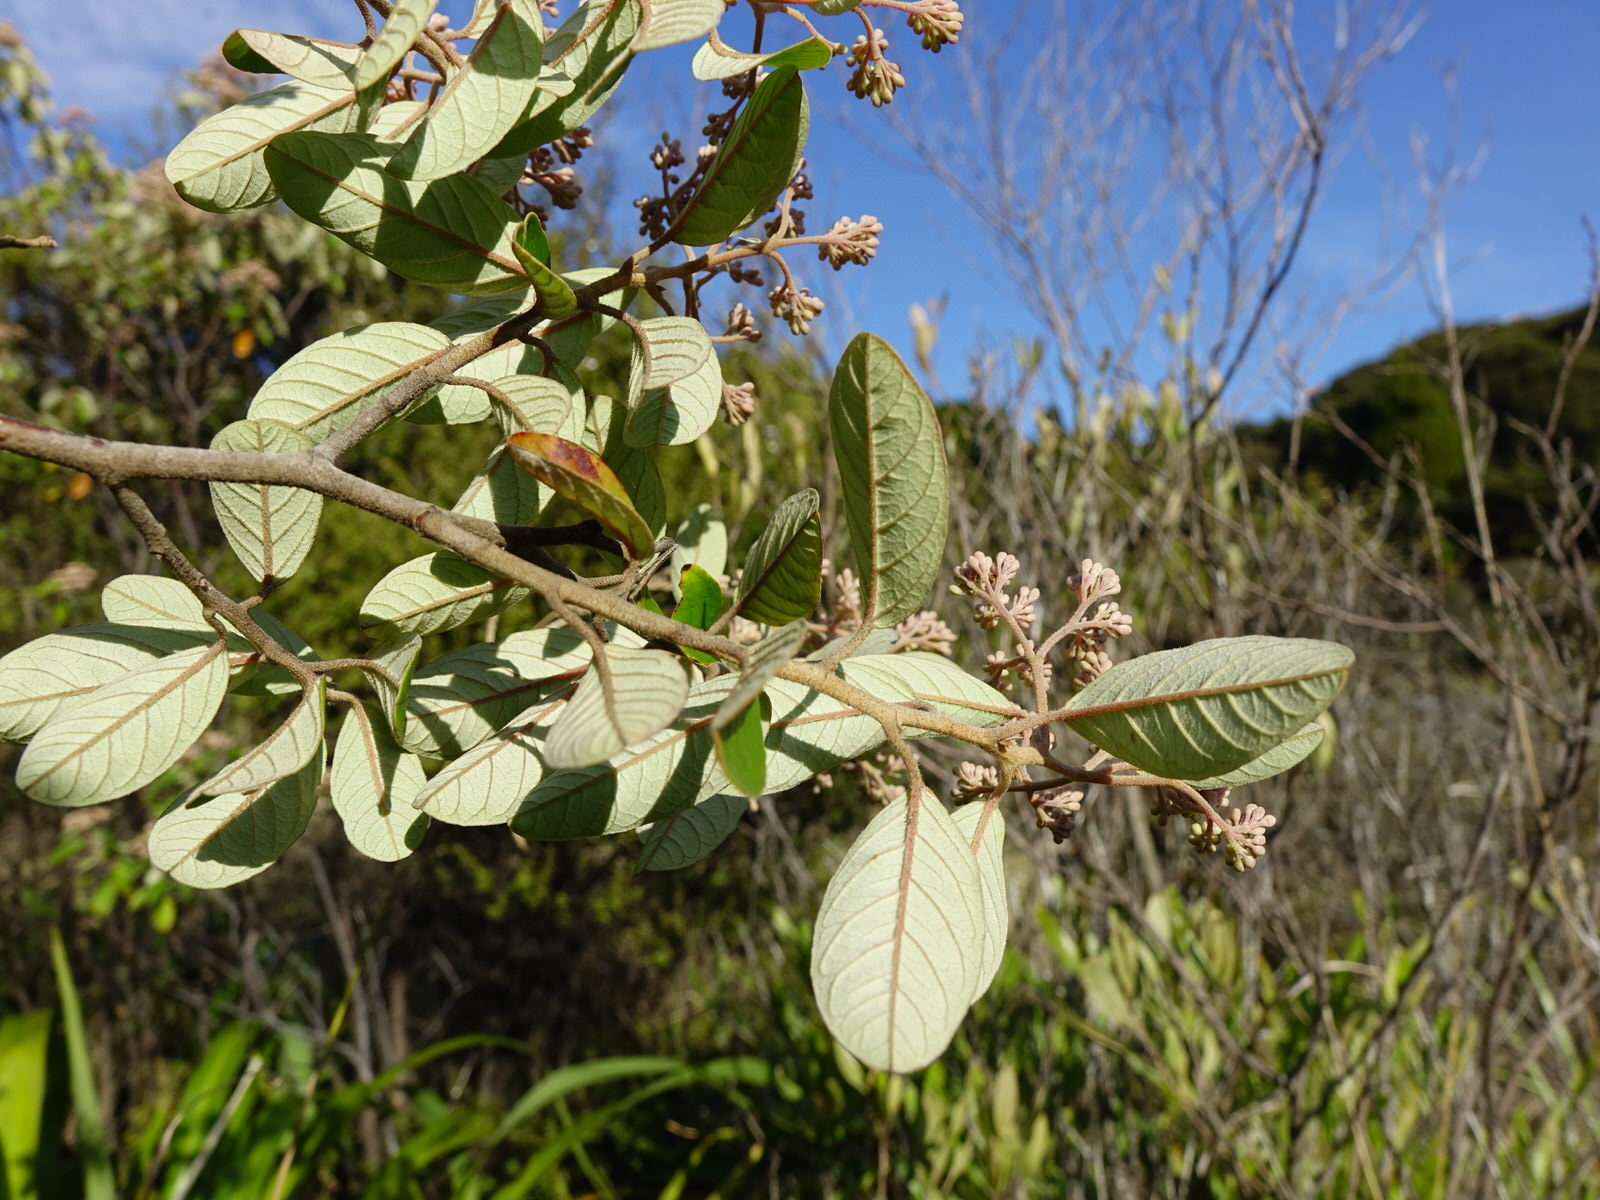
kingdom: Plantae
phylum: Tracheophyta
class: Magnoliopsida
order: Rosales
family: Rhamnaceae
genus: Pomaderris
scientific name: Pomaderris kumeraho
